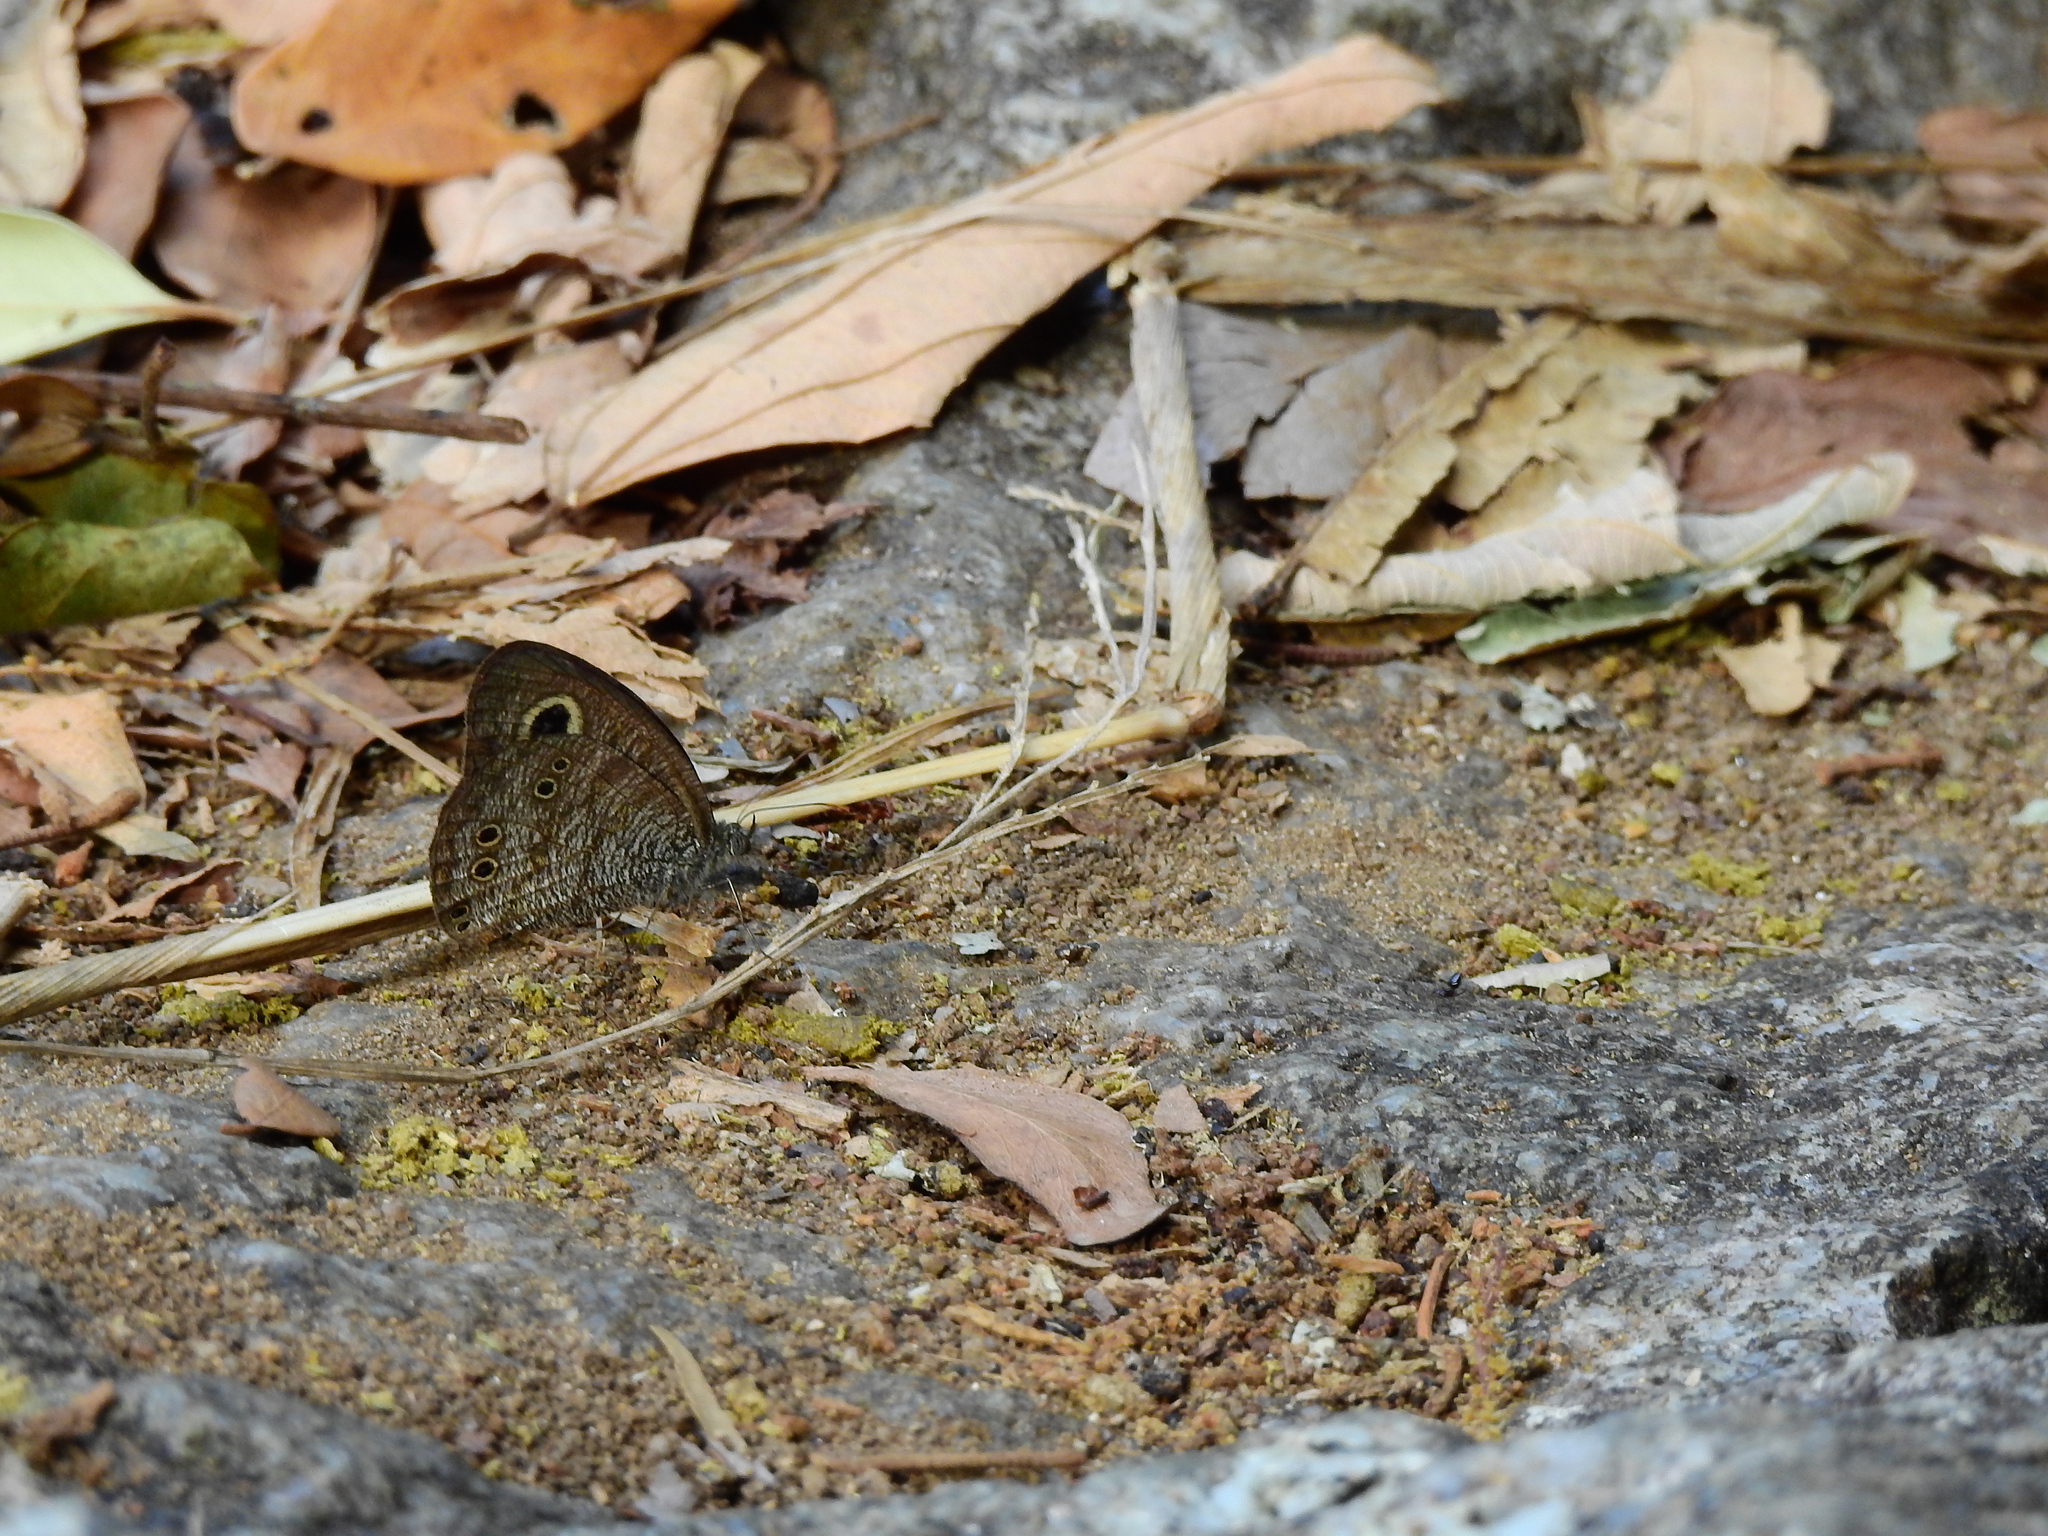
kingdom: Animalia
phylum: Arthropoda
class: Insecta
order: Lepidoptera
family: Nymphalidae
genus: Ypthima
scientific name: Ypthima baldus
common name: Common five-ring
